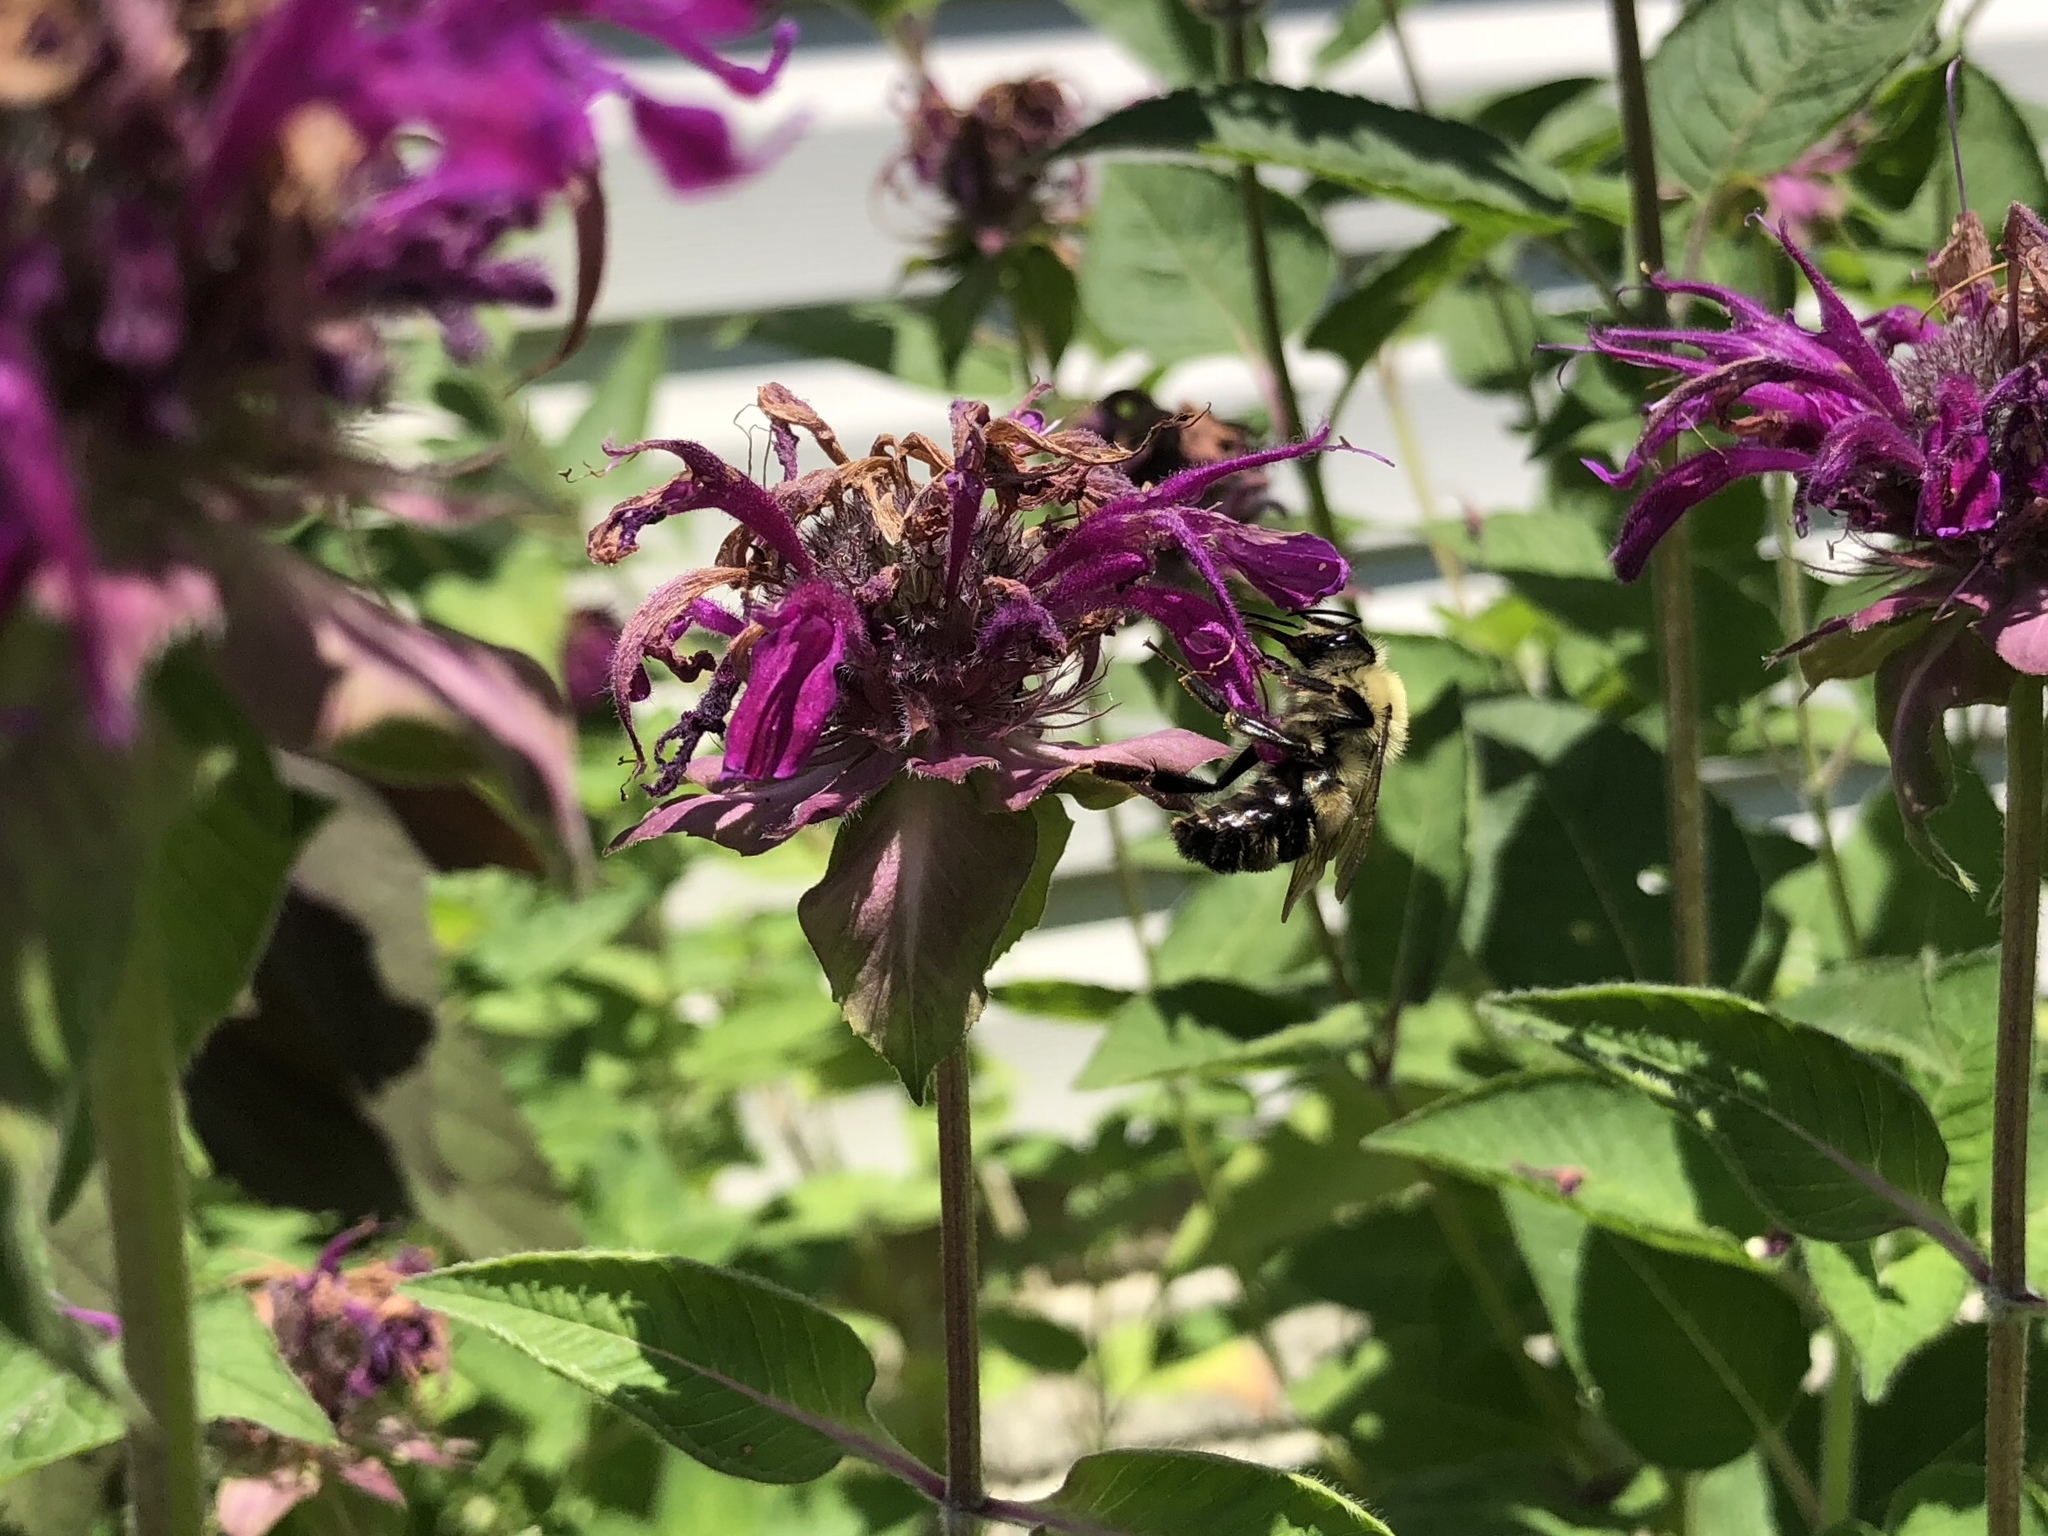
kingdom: Animalia
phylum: Arthropoda
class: Insecta
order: Hymenoptera
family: Apidae
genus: Bombus
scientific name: Bombus bimaculatus
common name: Two-spotted bumble bee
